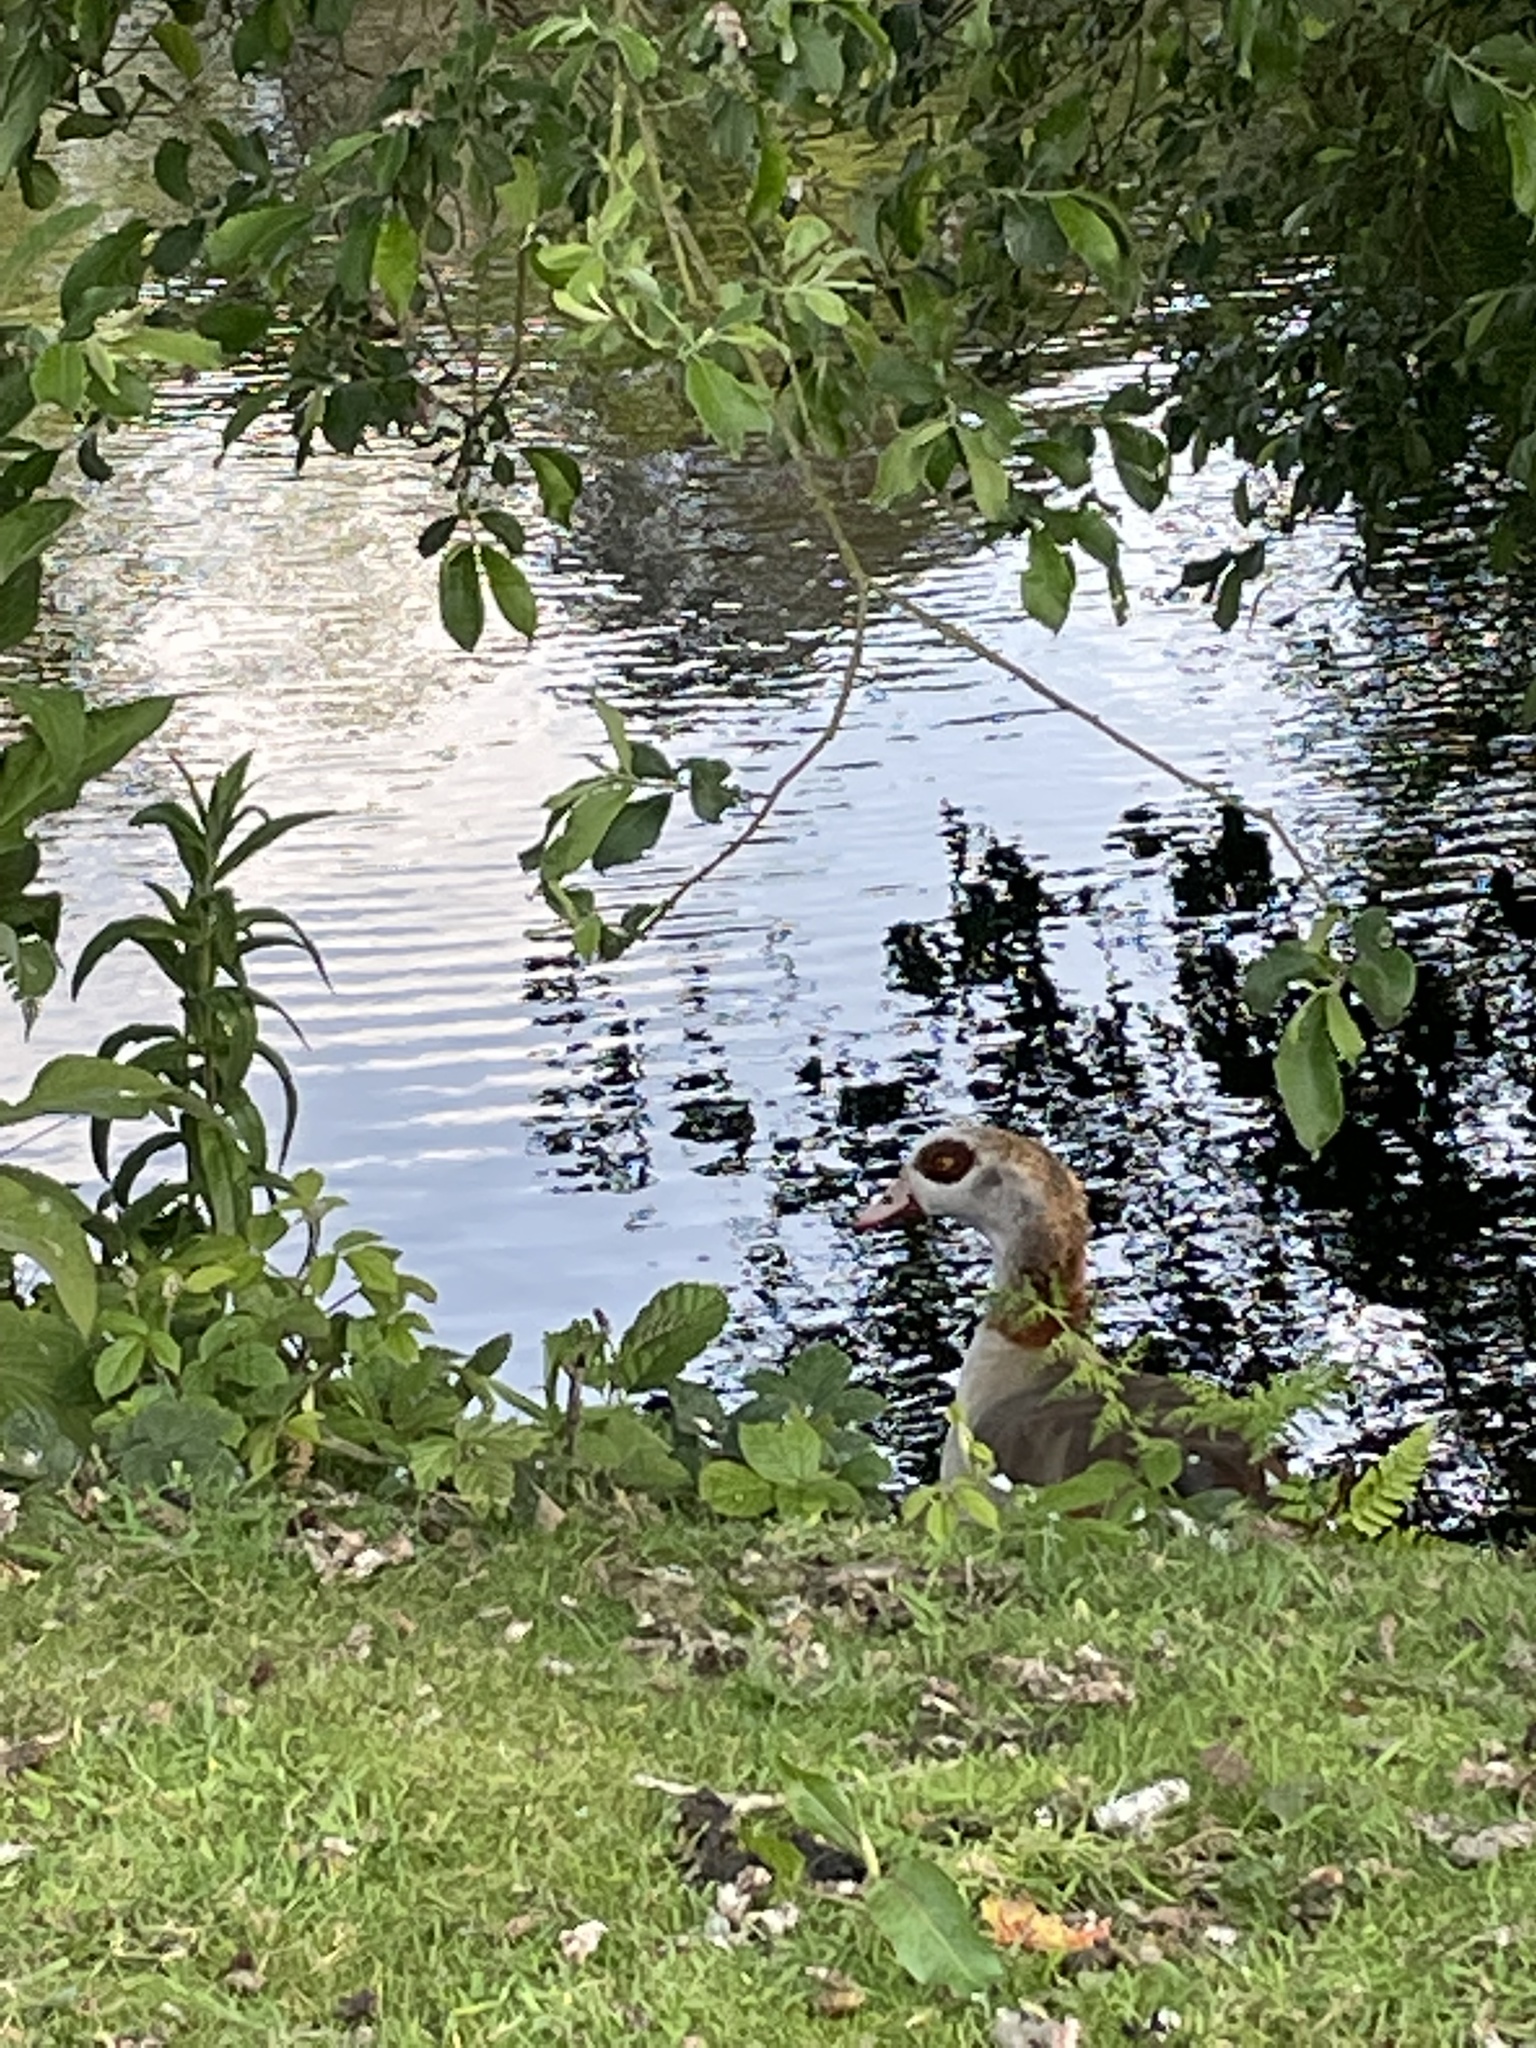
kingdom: Animalia
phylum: Chordata
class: Aves
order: Anseriformes
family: Anatidae
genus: Alopochen
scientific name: Alopochen aegyptiaca
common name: Egyptian goose
